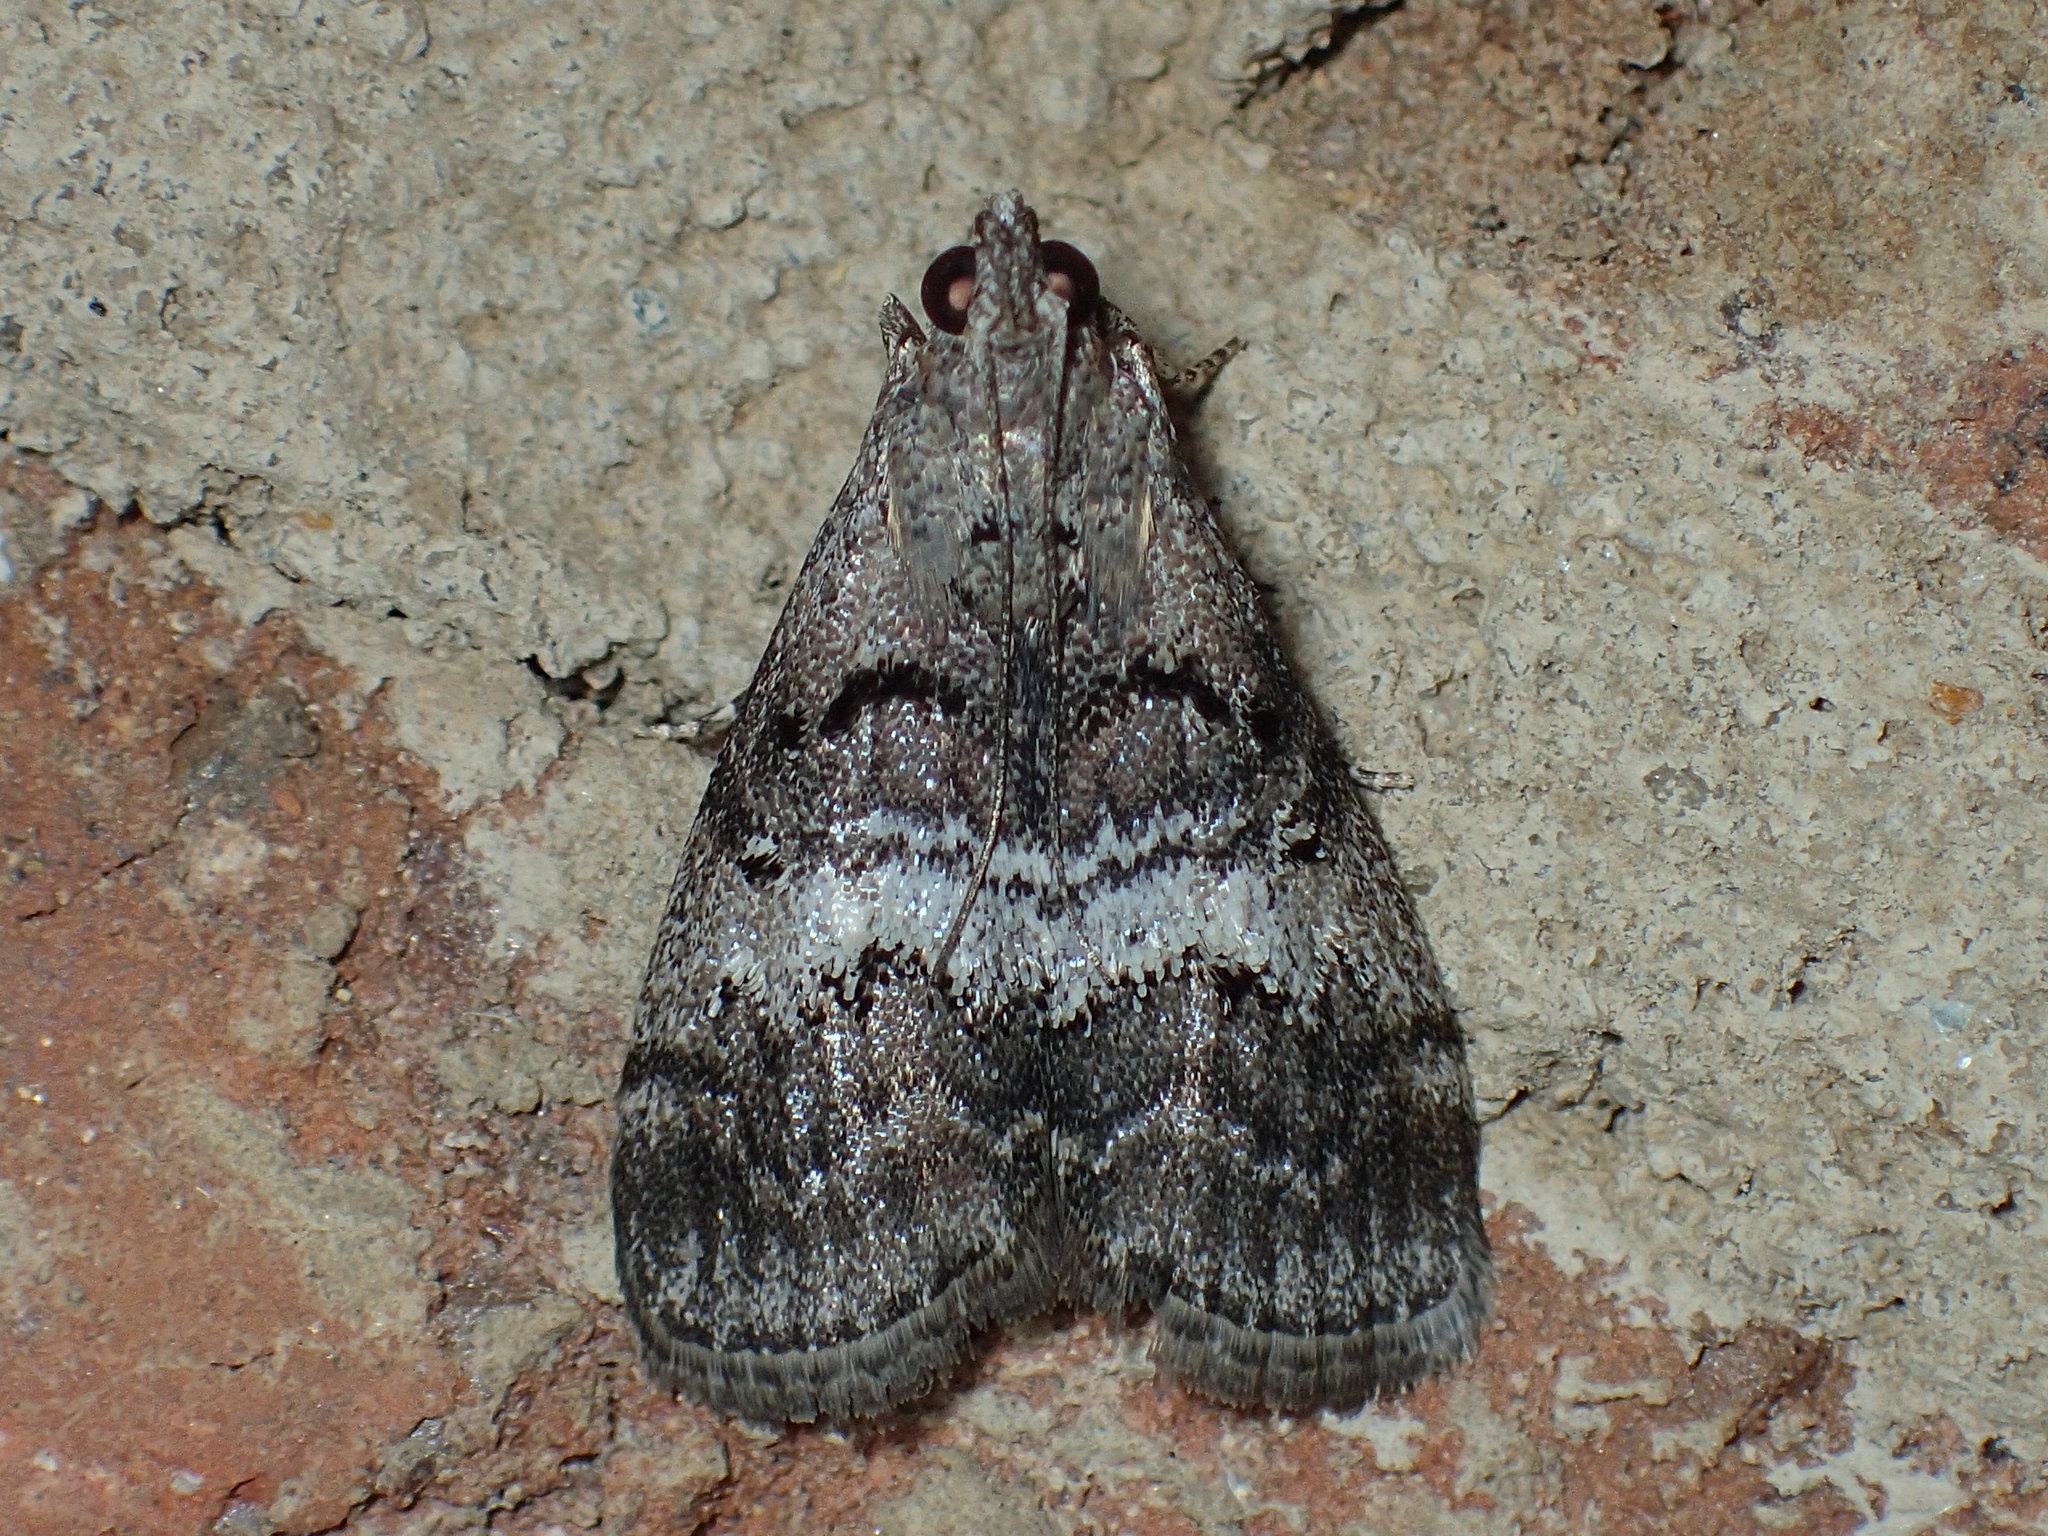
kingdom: Animalia
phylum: Arthropoda
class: Insecta
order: Lepidoptera
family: Pyralidae
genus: Pococera
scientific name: Pococera asperatella
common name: Maple webworm moth
